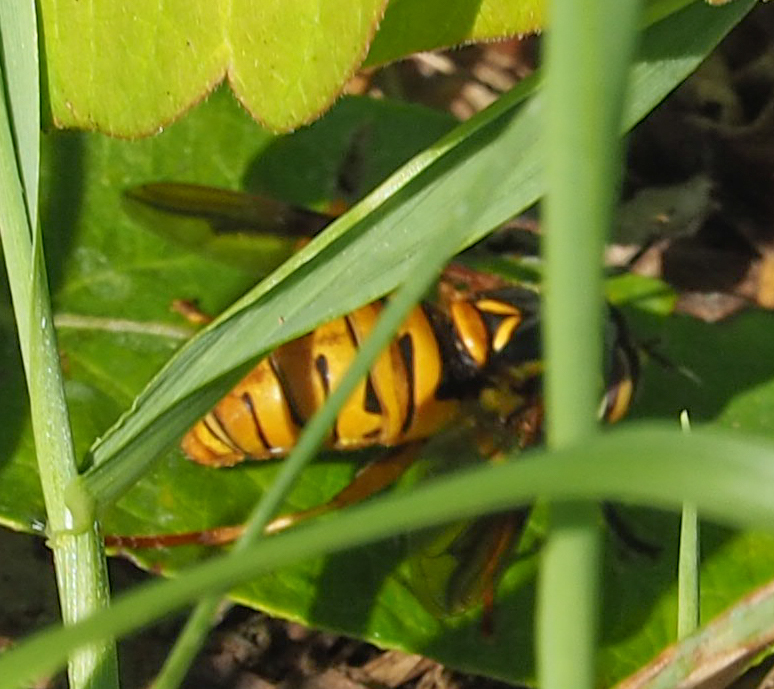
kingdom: Animalia
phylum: Arthropoda
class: Insecta
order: Diptera
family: Syrphidae
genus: Spilomyia
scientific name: Spilomyia
